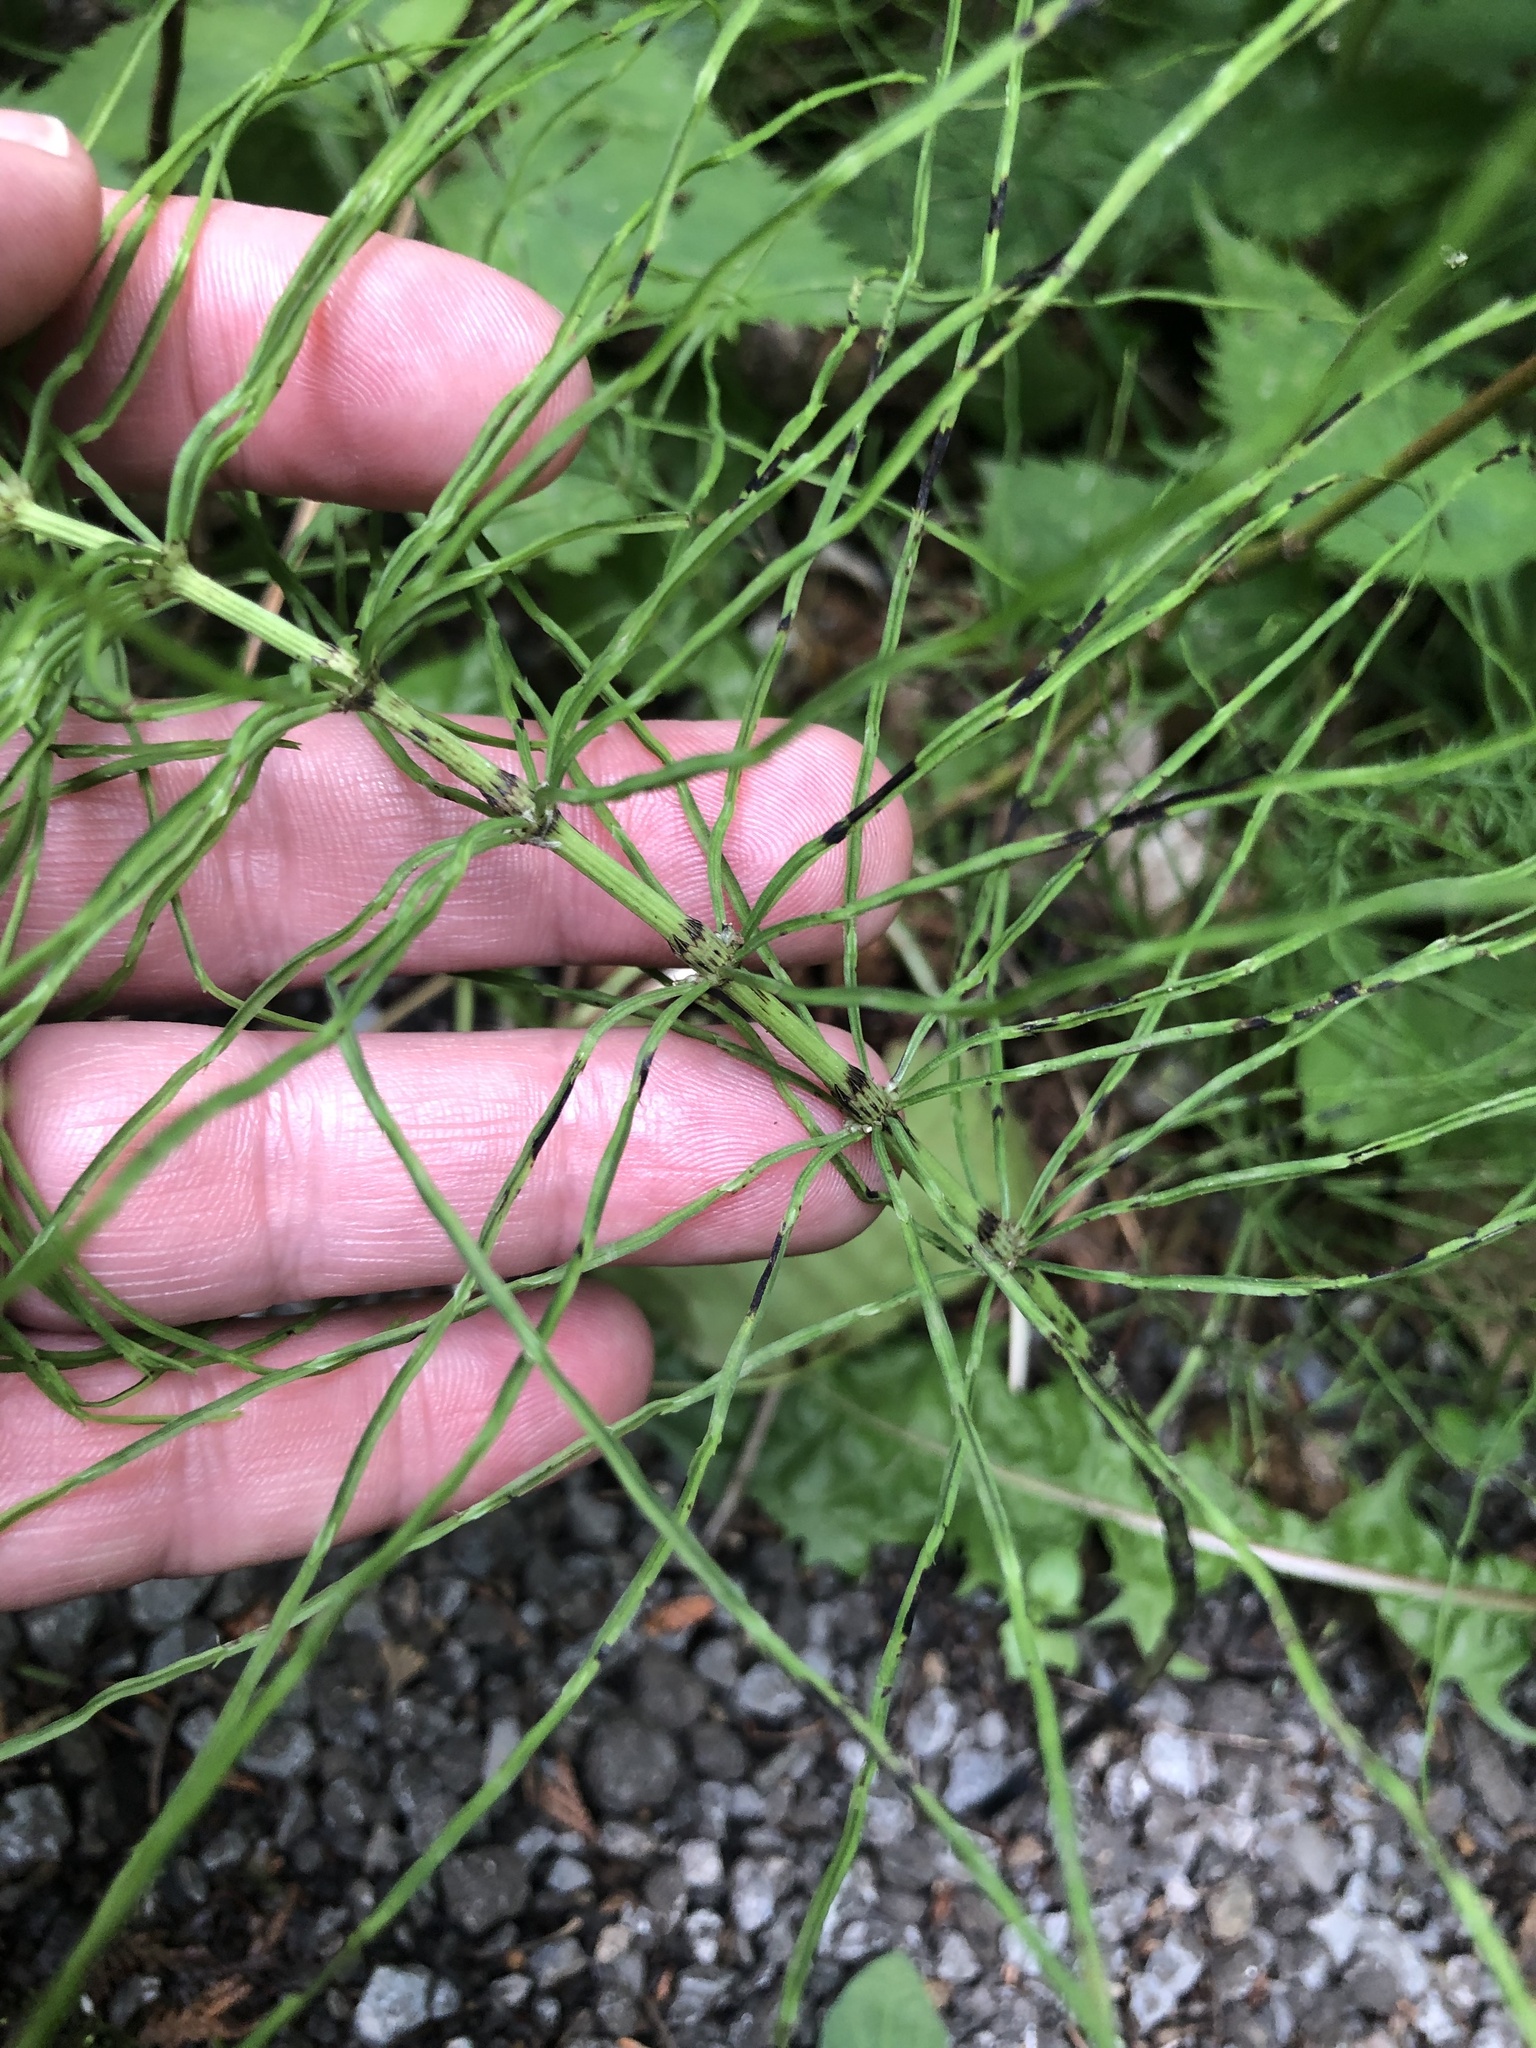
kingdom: Plantae
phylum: Tracheophyta
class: Polypodiopsida
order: Equisetales
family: Equisetaceae
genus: Equisetum
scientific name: Equisetum arvense
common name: Field horsetail
